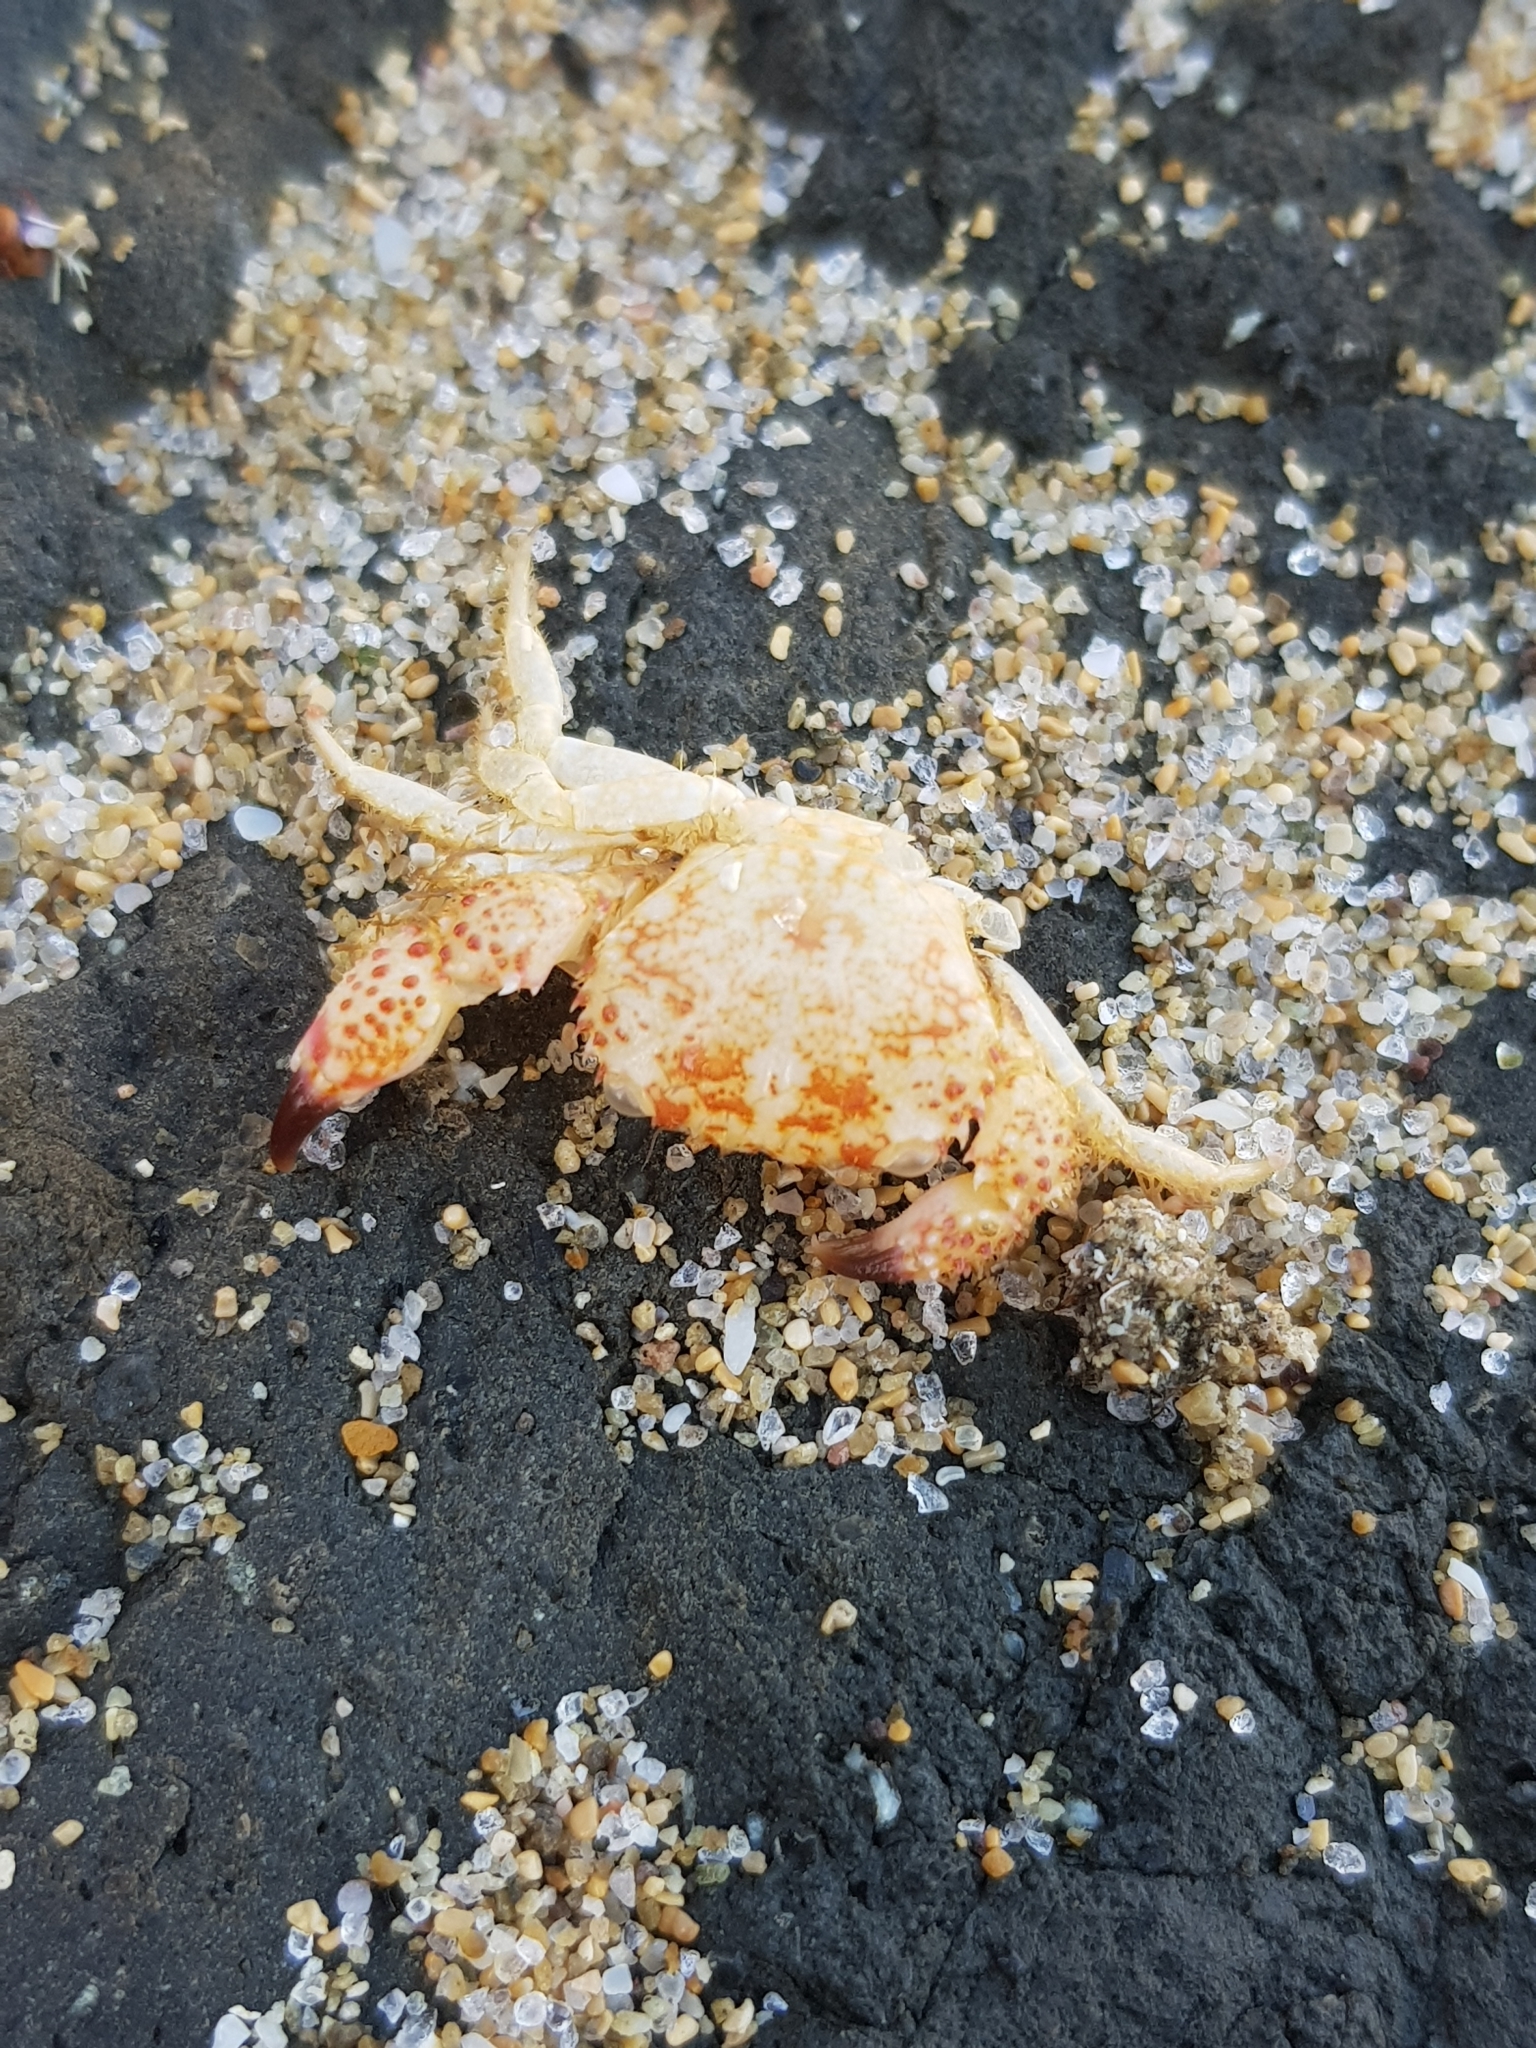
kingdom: Animalia
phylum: Arthropoda
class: Malacostraca
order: Decapoda
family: Eriphiidae
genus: Eriphia
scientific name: Eriphia verrucosa
